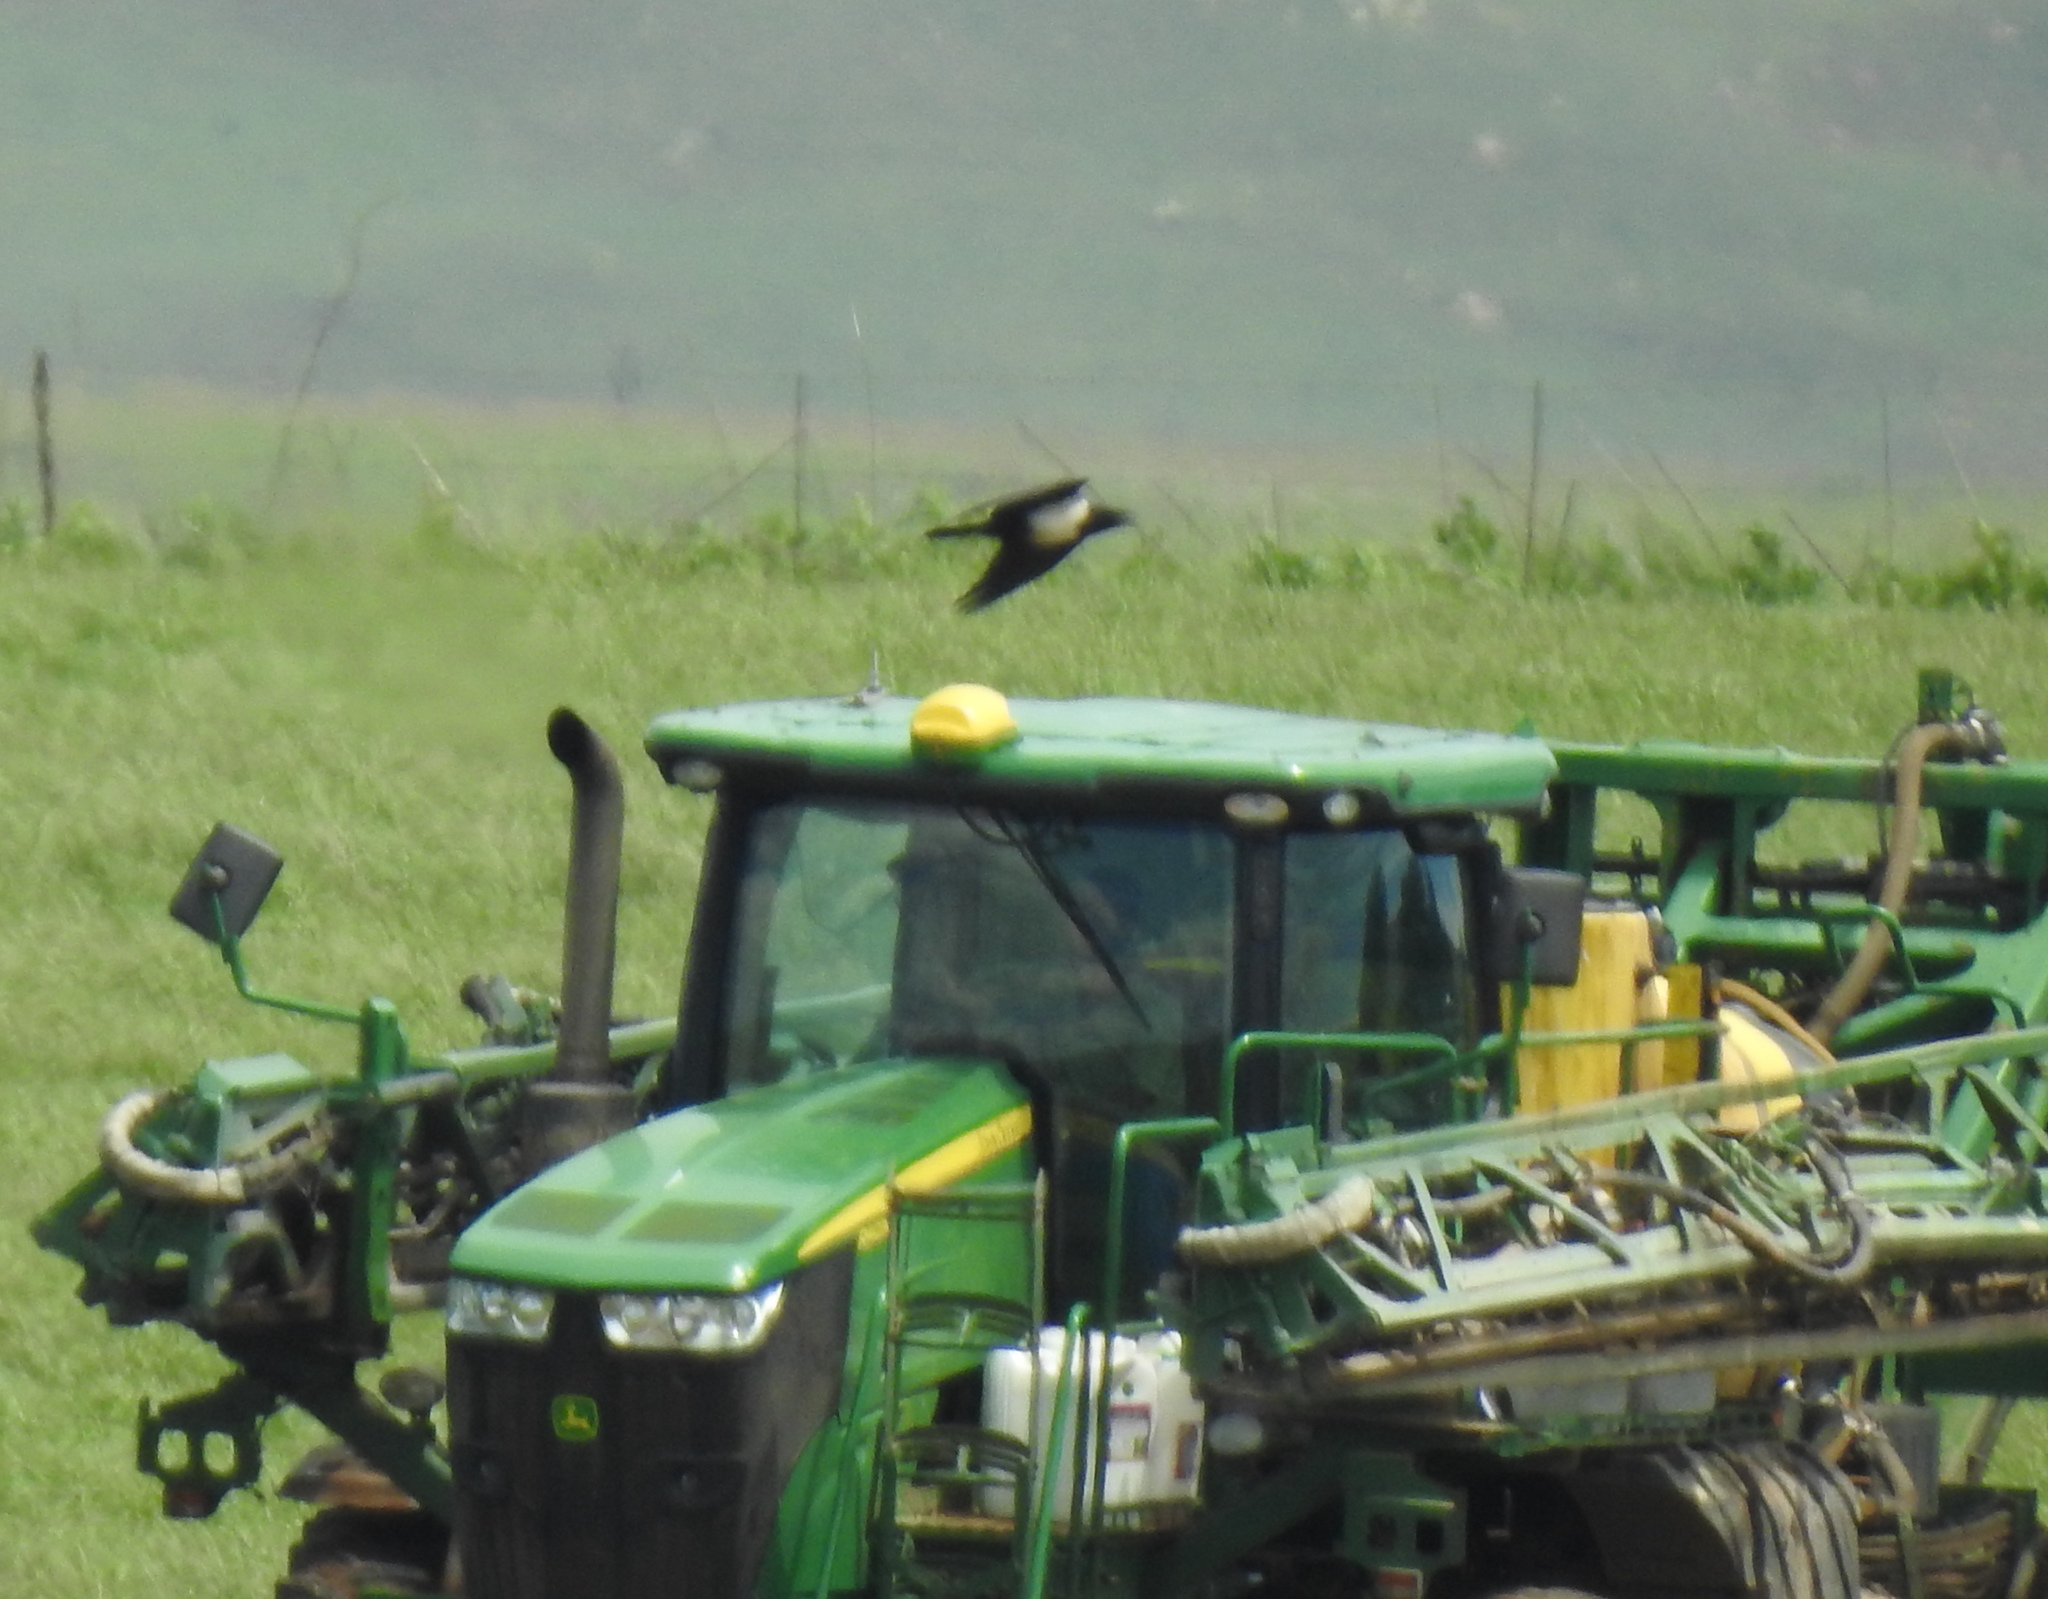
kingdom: Animalia
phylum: Chordata
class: Aves
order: Passeriformes
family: Corvidae
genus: Corvus
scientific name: Corvus albus
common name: Pied crow
